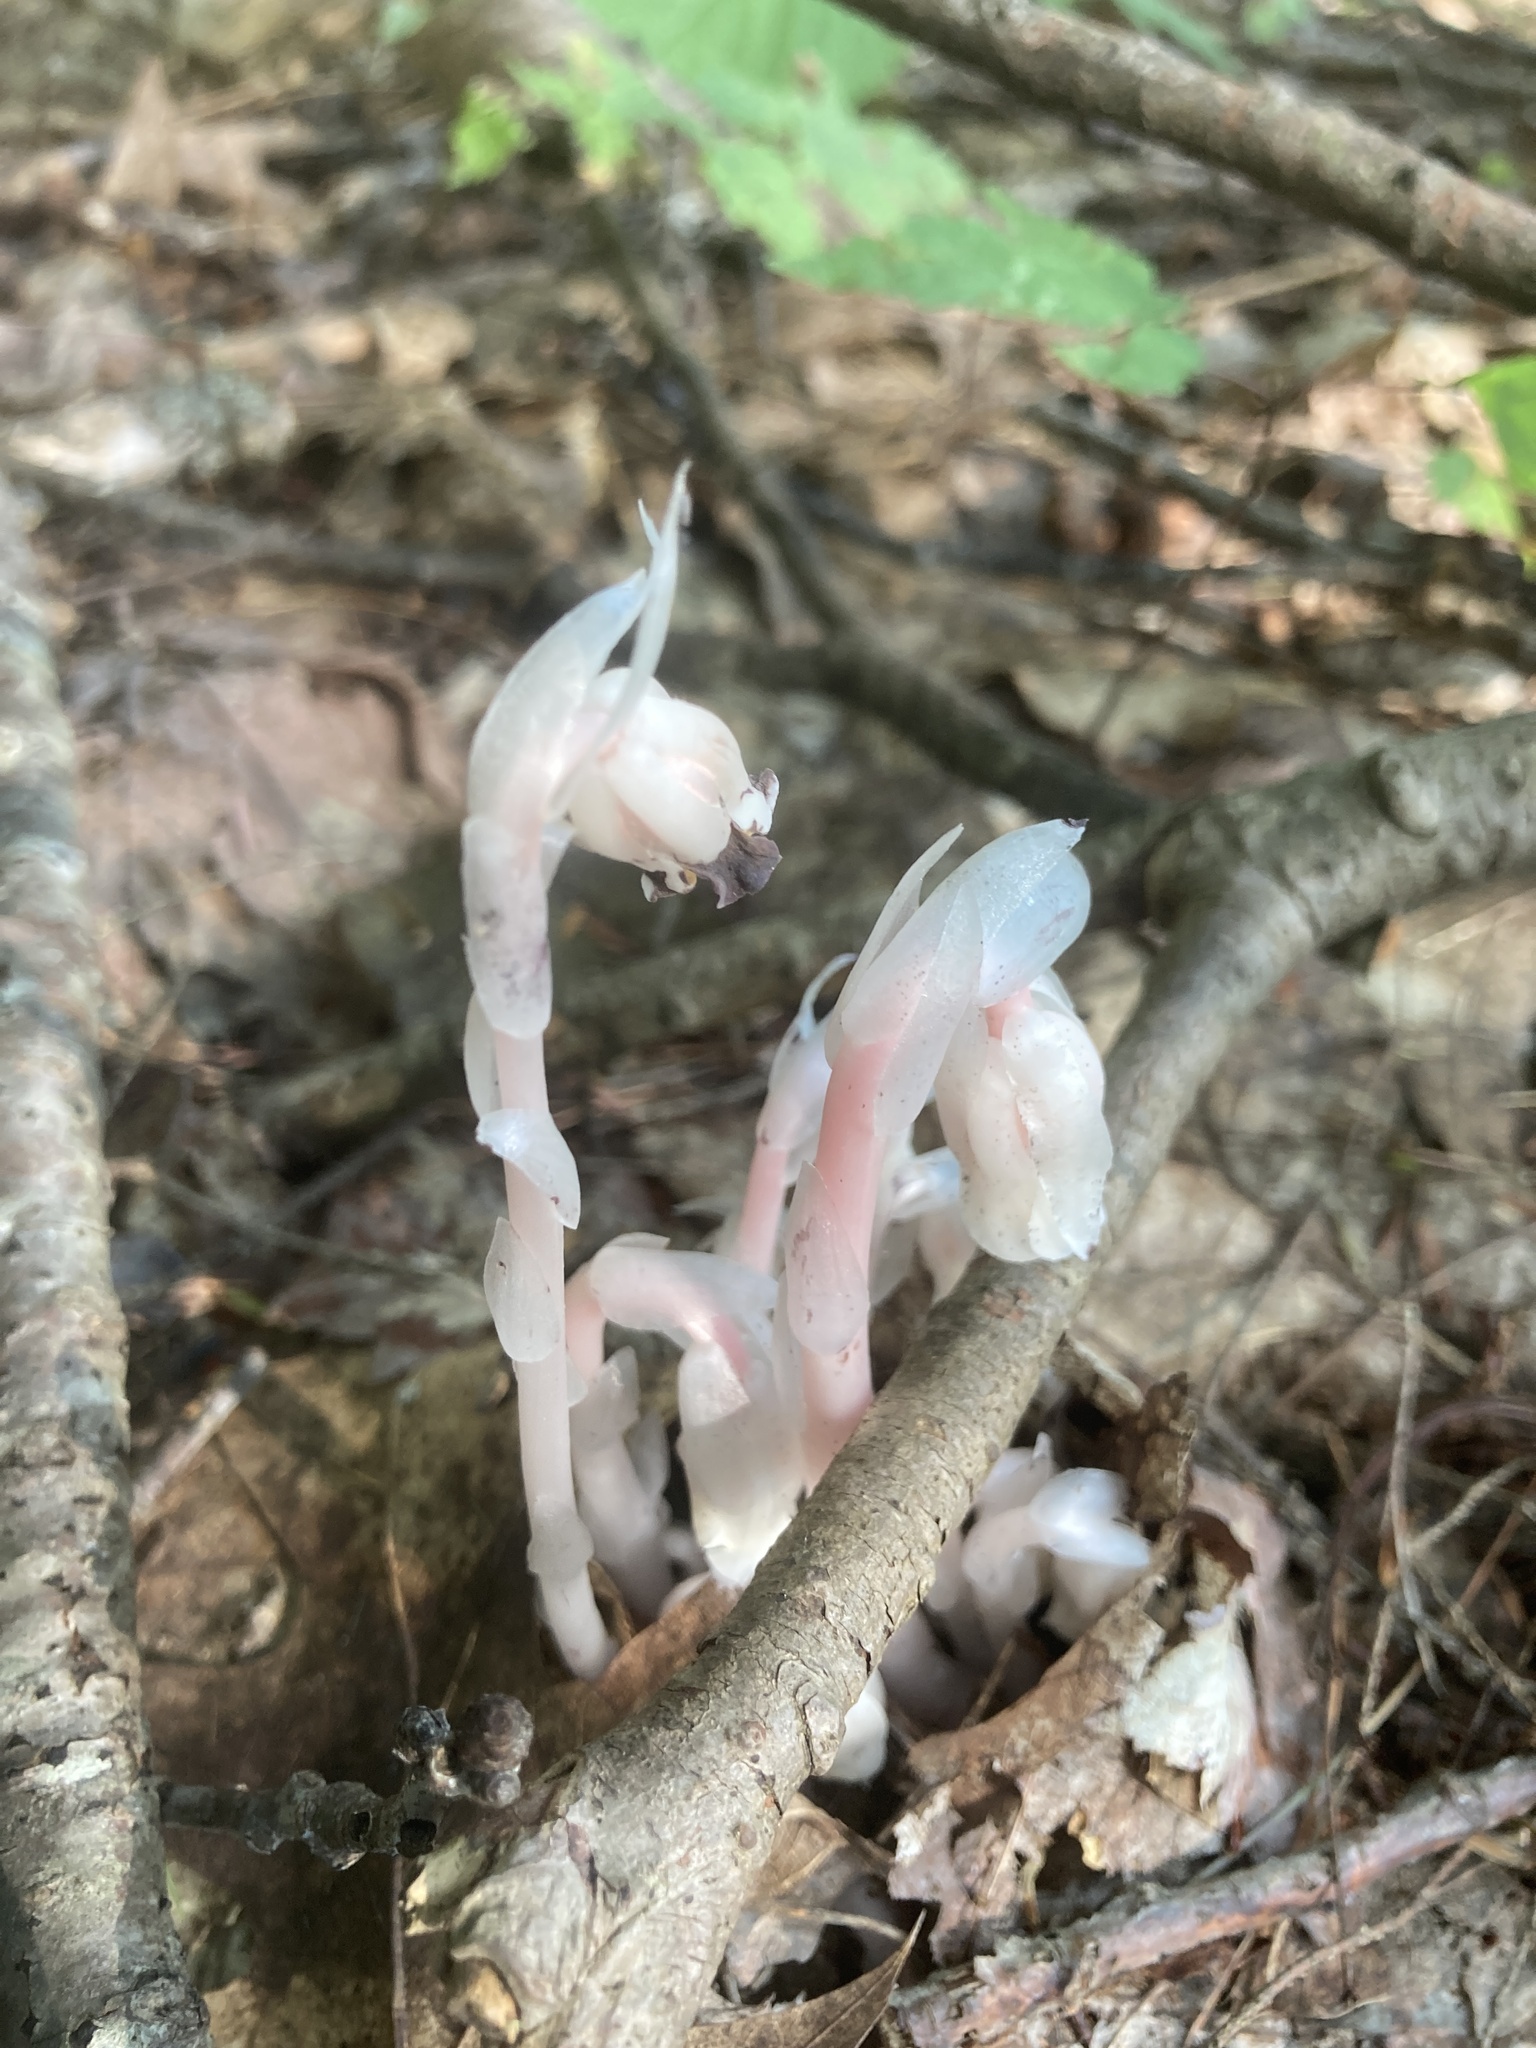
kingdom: Plantae
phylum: Tracheophyta
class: Magnoliopsida
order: Ericales
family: Ericaceae
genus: Monotropa
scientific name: Monotropa uniflora
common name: Convulsion root
